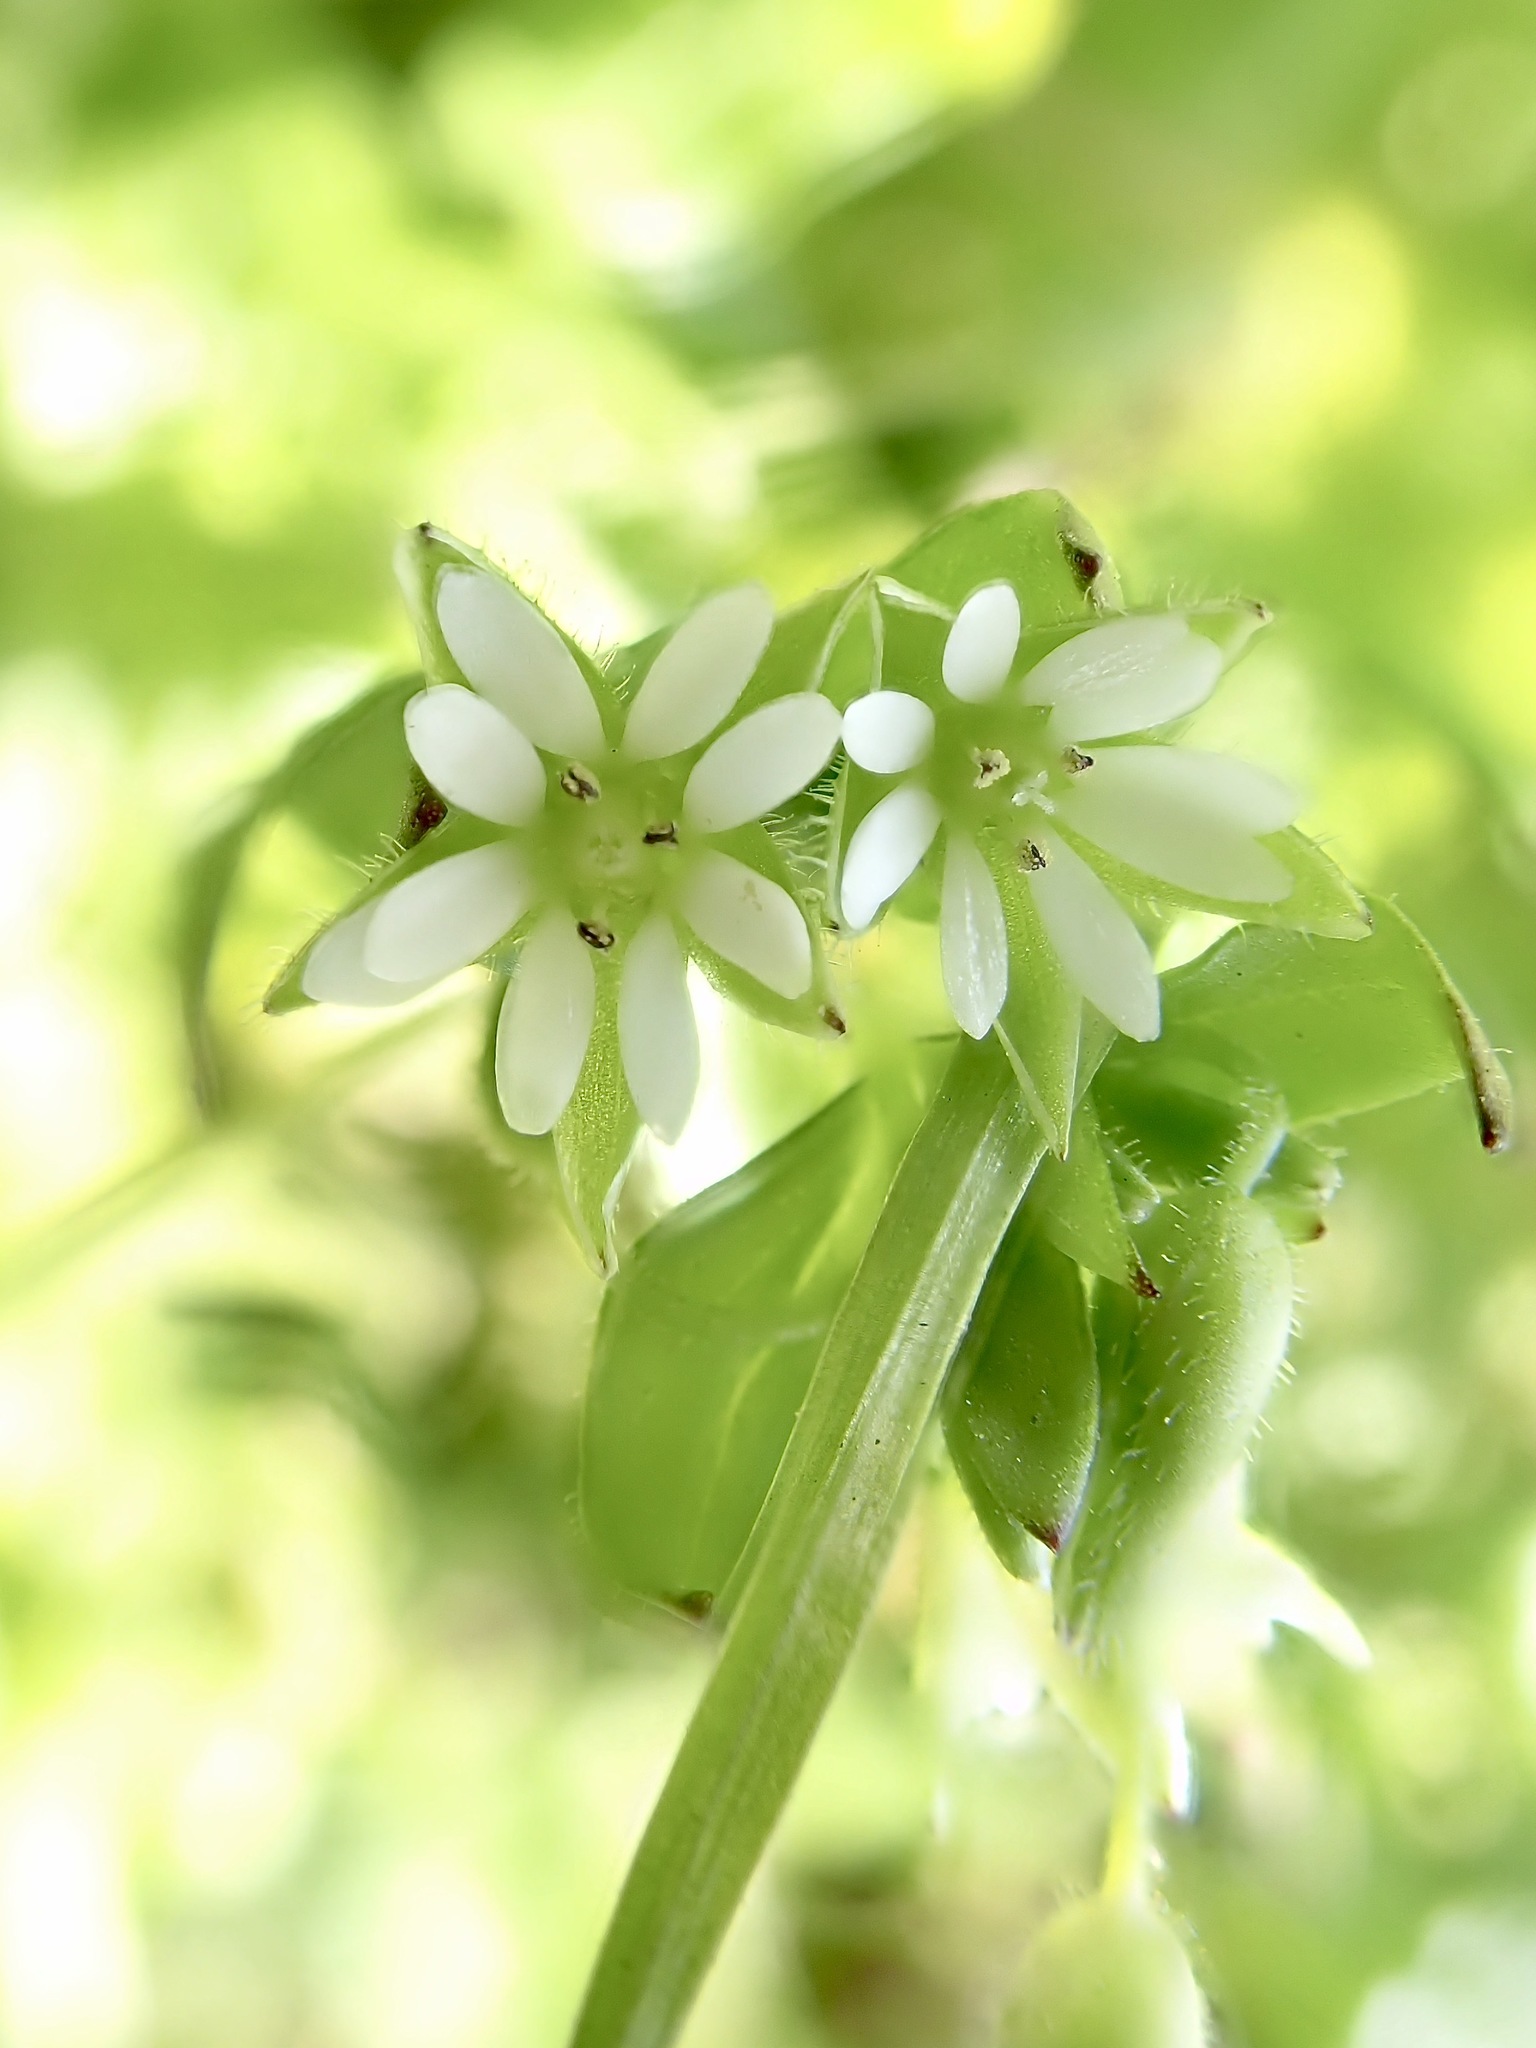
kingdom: Plantae
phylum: Tracheophyta
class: Magnoliopsida
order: Caryophyllales
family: Caryophyllaceae
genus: Stellaria
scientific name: Stellaria media
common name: Common chickweed
